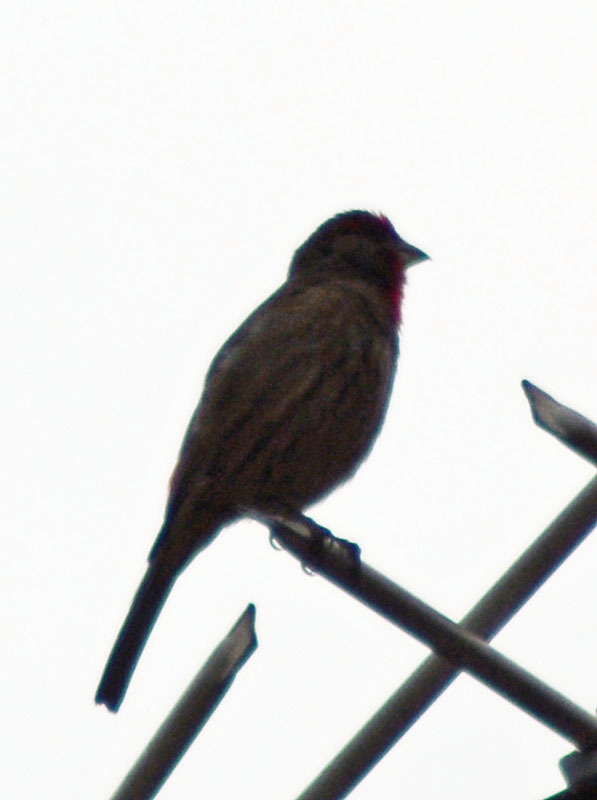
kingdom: Animalia
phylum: Chordata
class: Aves
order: Passeriformes
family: Fringillidae
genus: Haemorhous
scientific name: Haemorhous mexicanus
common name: House finch
